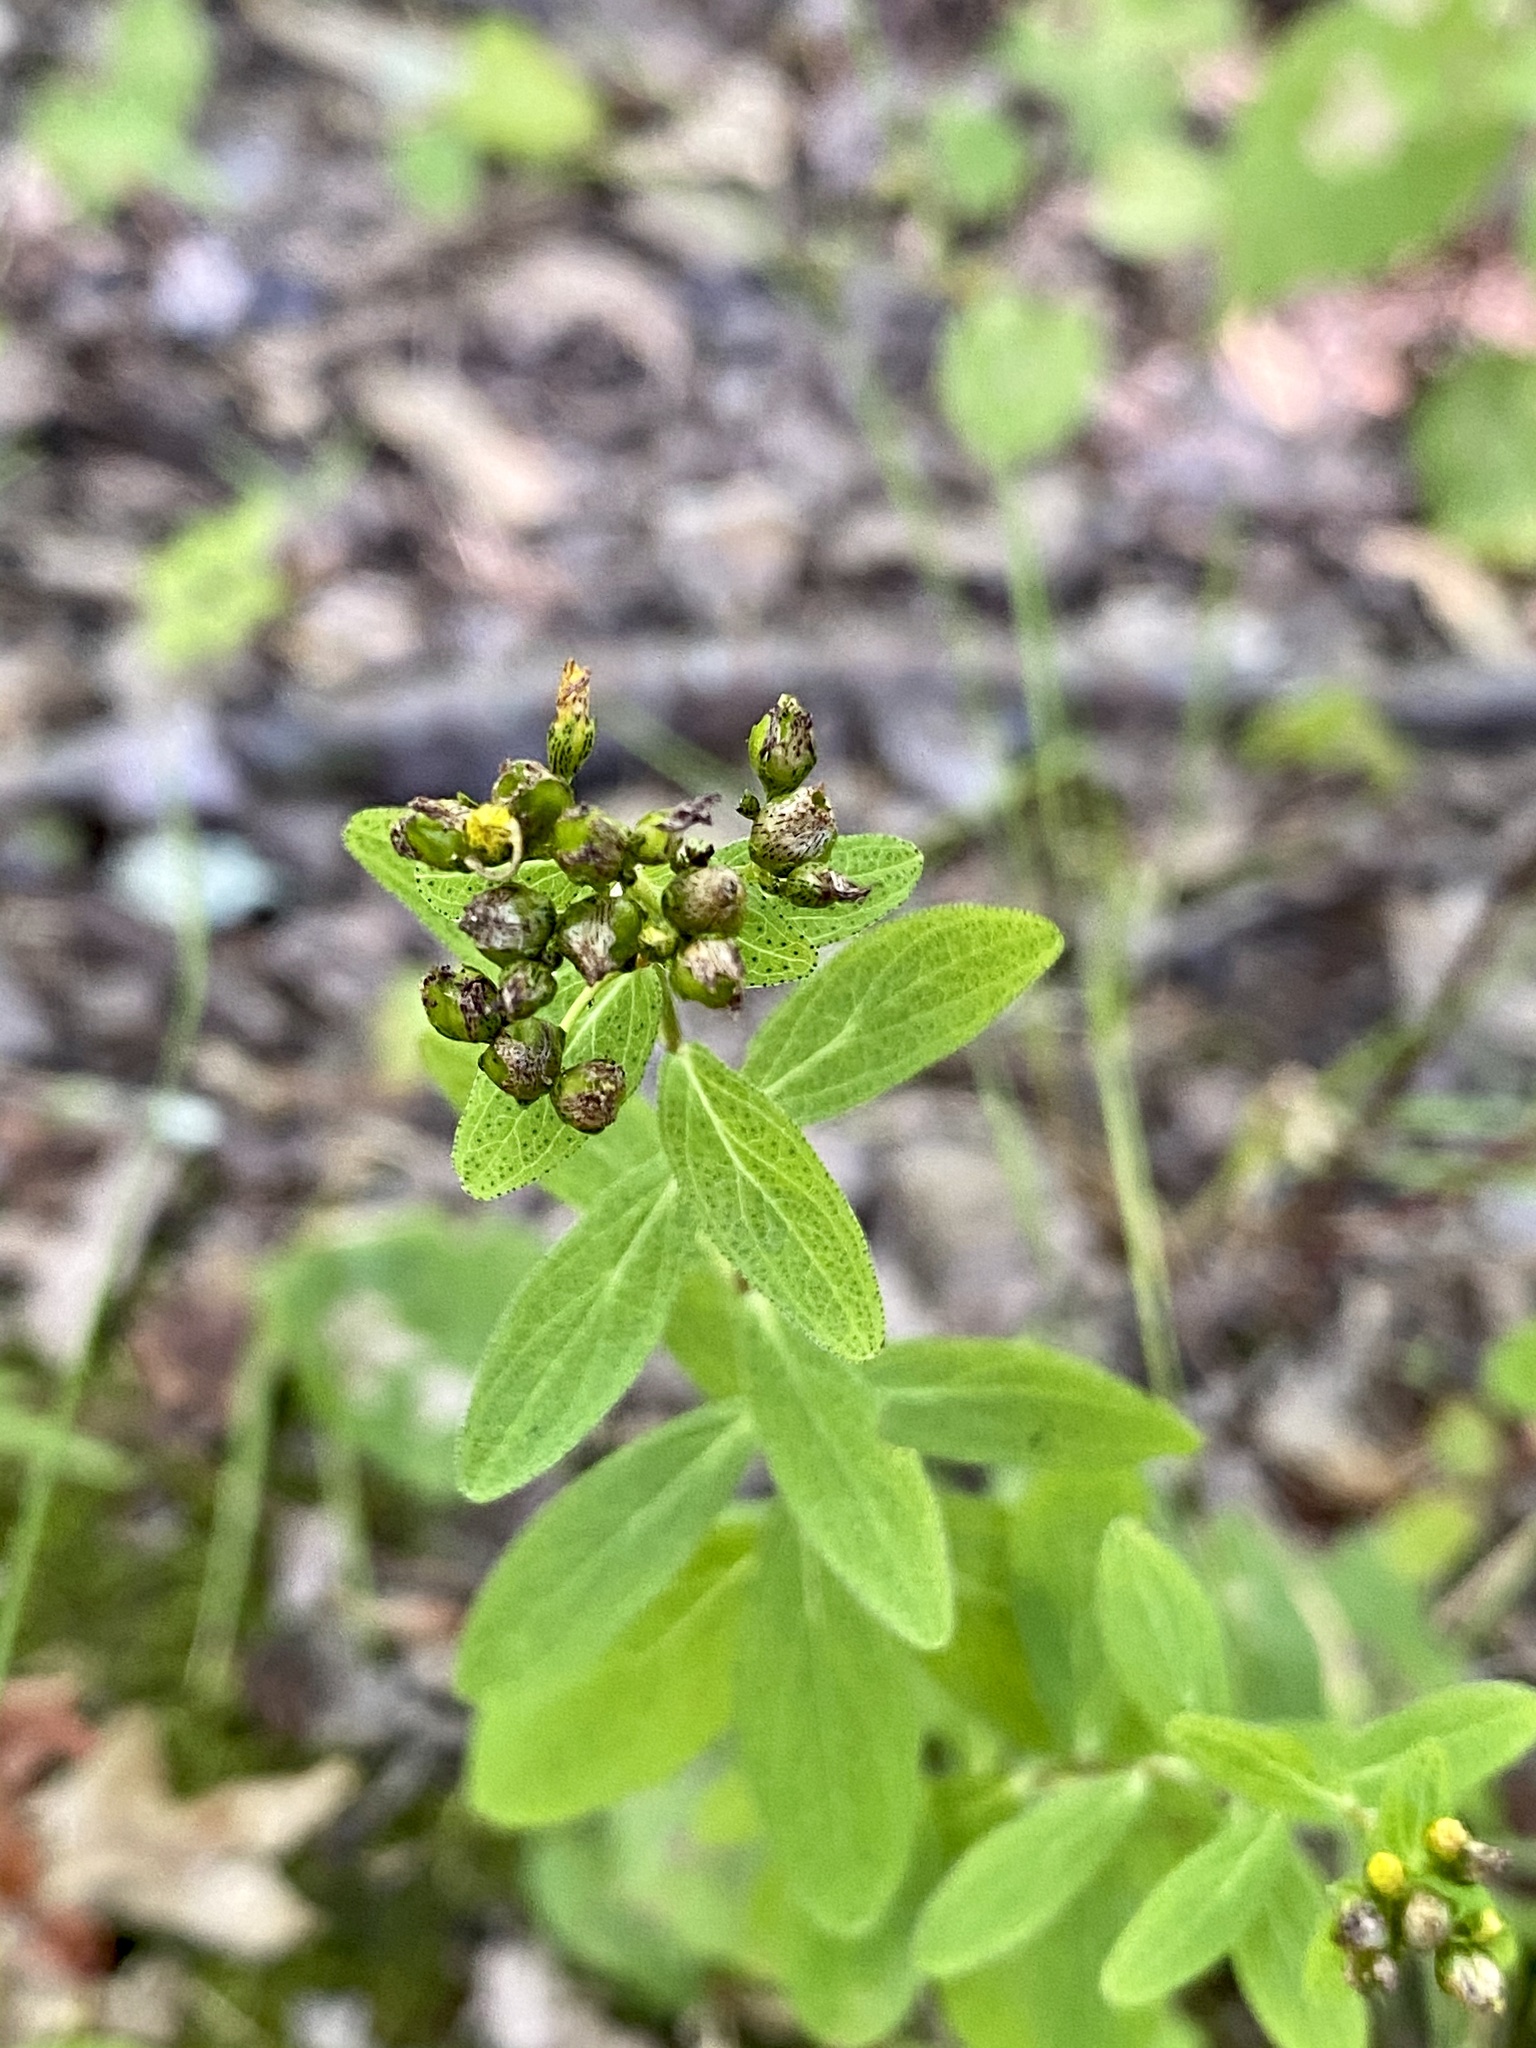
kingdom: Plantae
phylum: Tracheophyta
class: Magnoliopsida
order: Malpighiales
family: Hypericaceae
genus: Hypericum
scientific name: Hypericum punctatum
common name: Spotted st. john's-wort
